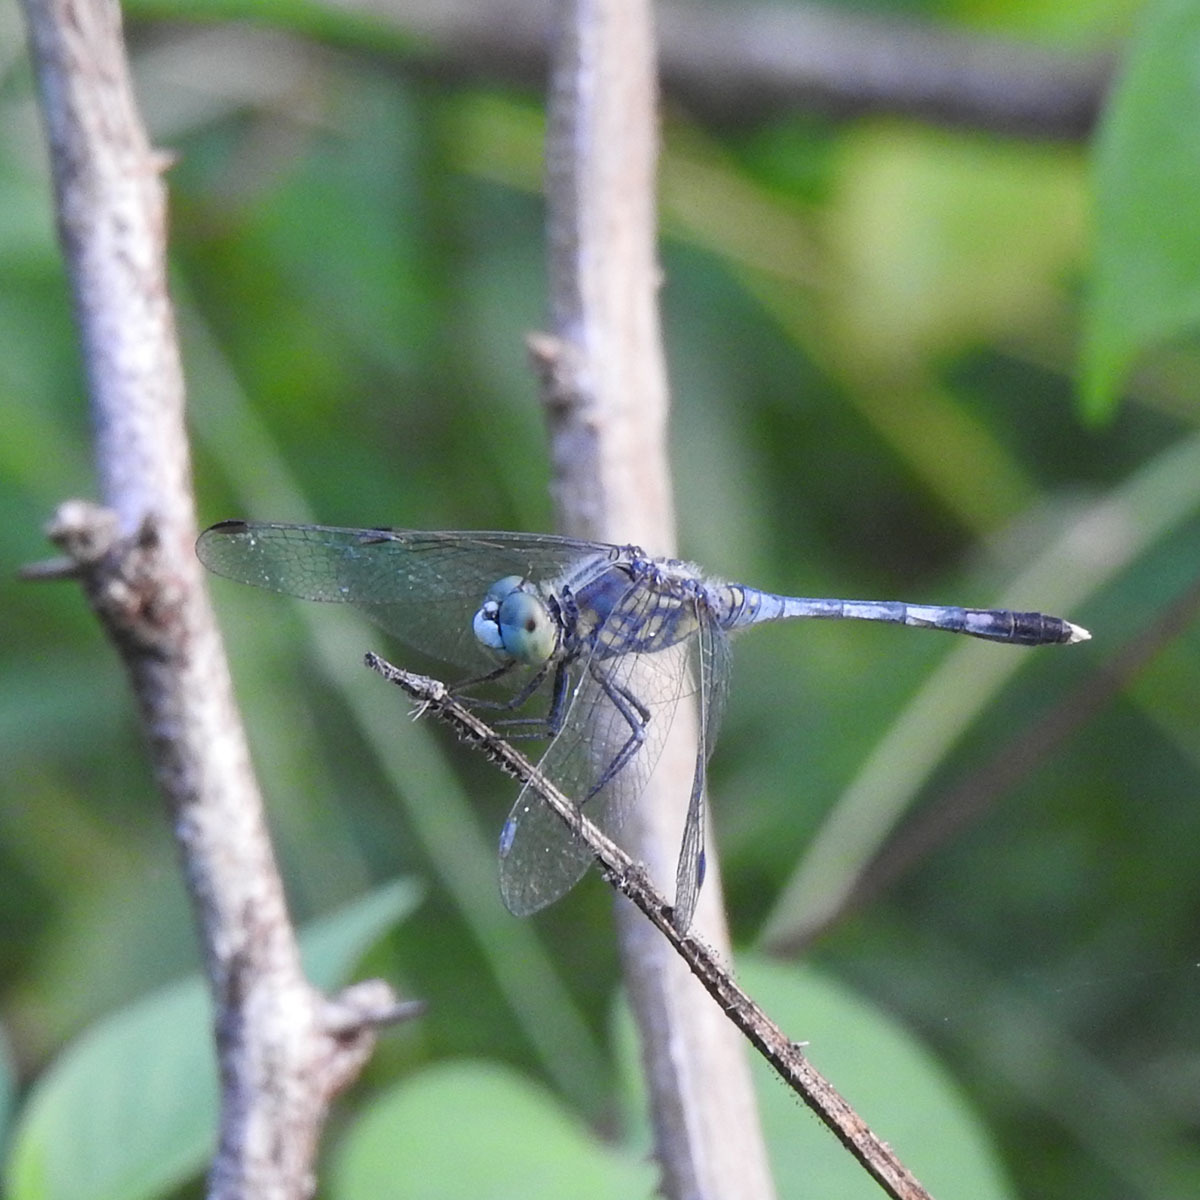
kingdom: Animalia
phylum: Arthropoda
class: Insecta
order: Odonata
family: Libellulidae
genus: Diplacodes
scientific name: Diplacodes trivialis
